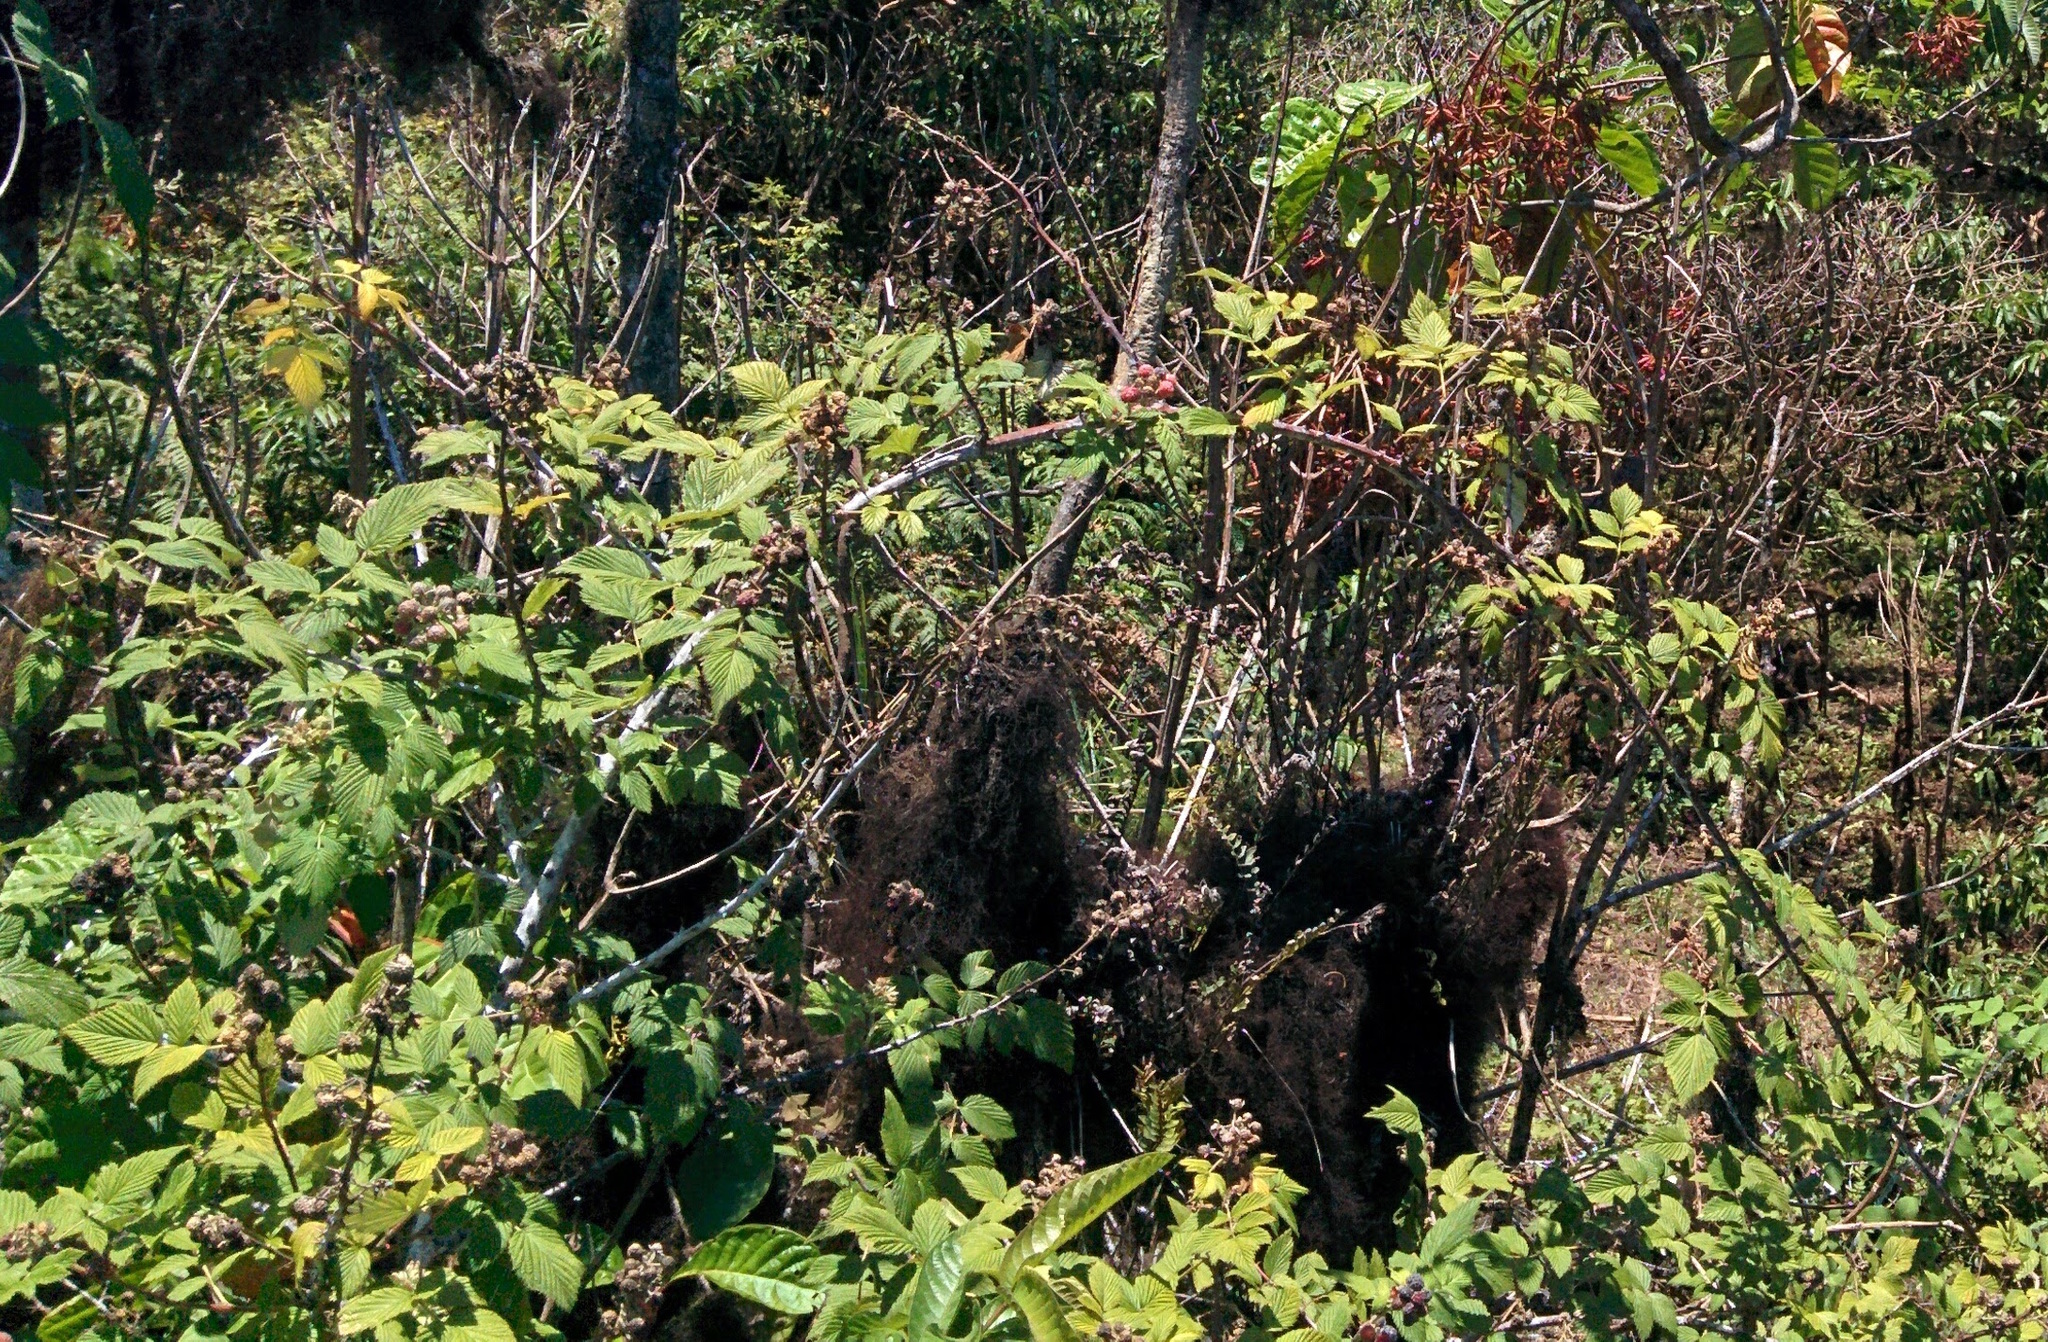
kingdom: Plantae
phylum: Tracheophyta
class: Magnoliopsida
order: Rosales
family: Rosaceae
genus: Rubus
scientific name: Rubus niveus
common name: Snowpeaks raspberry
